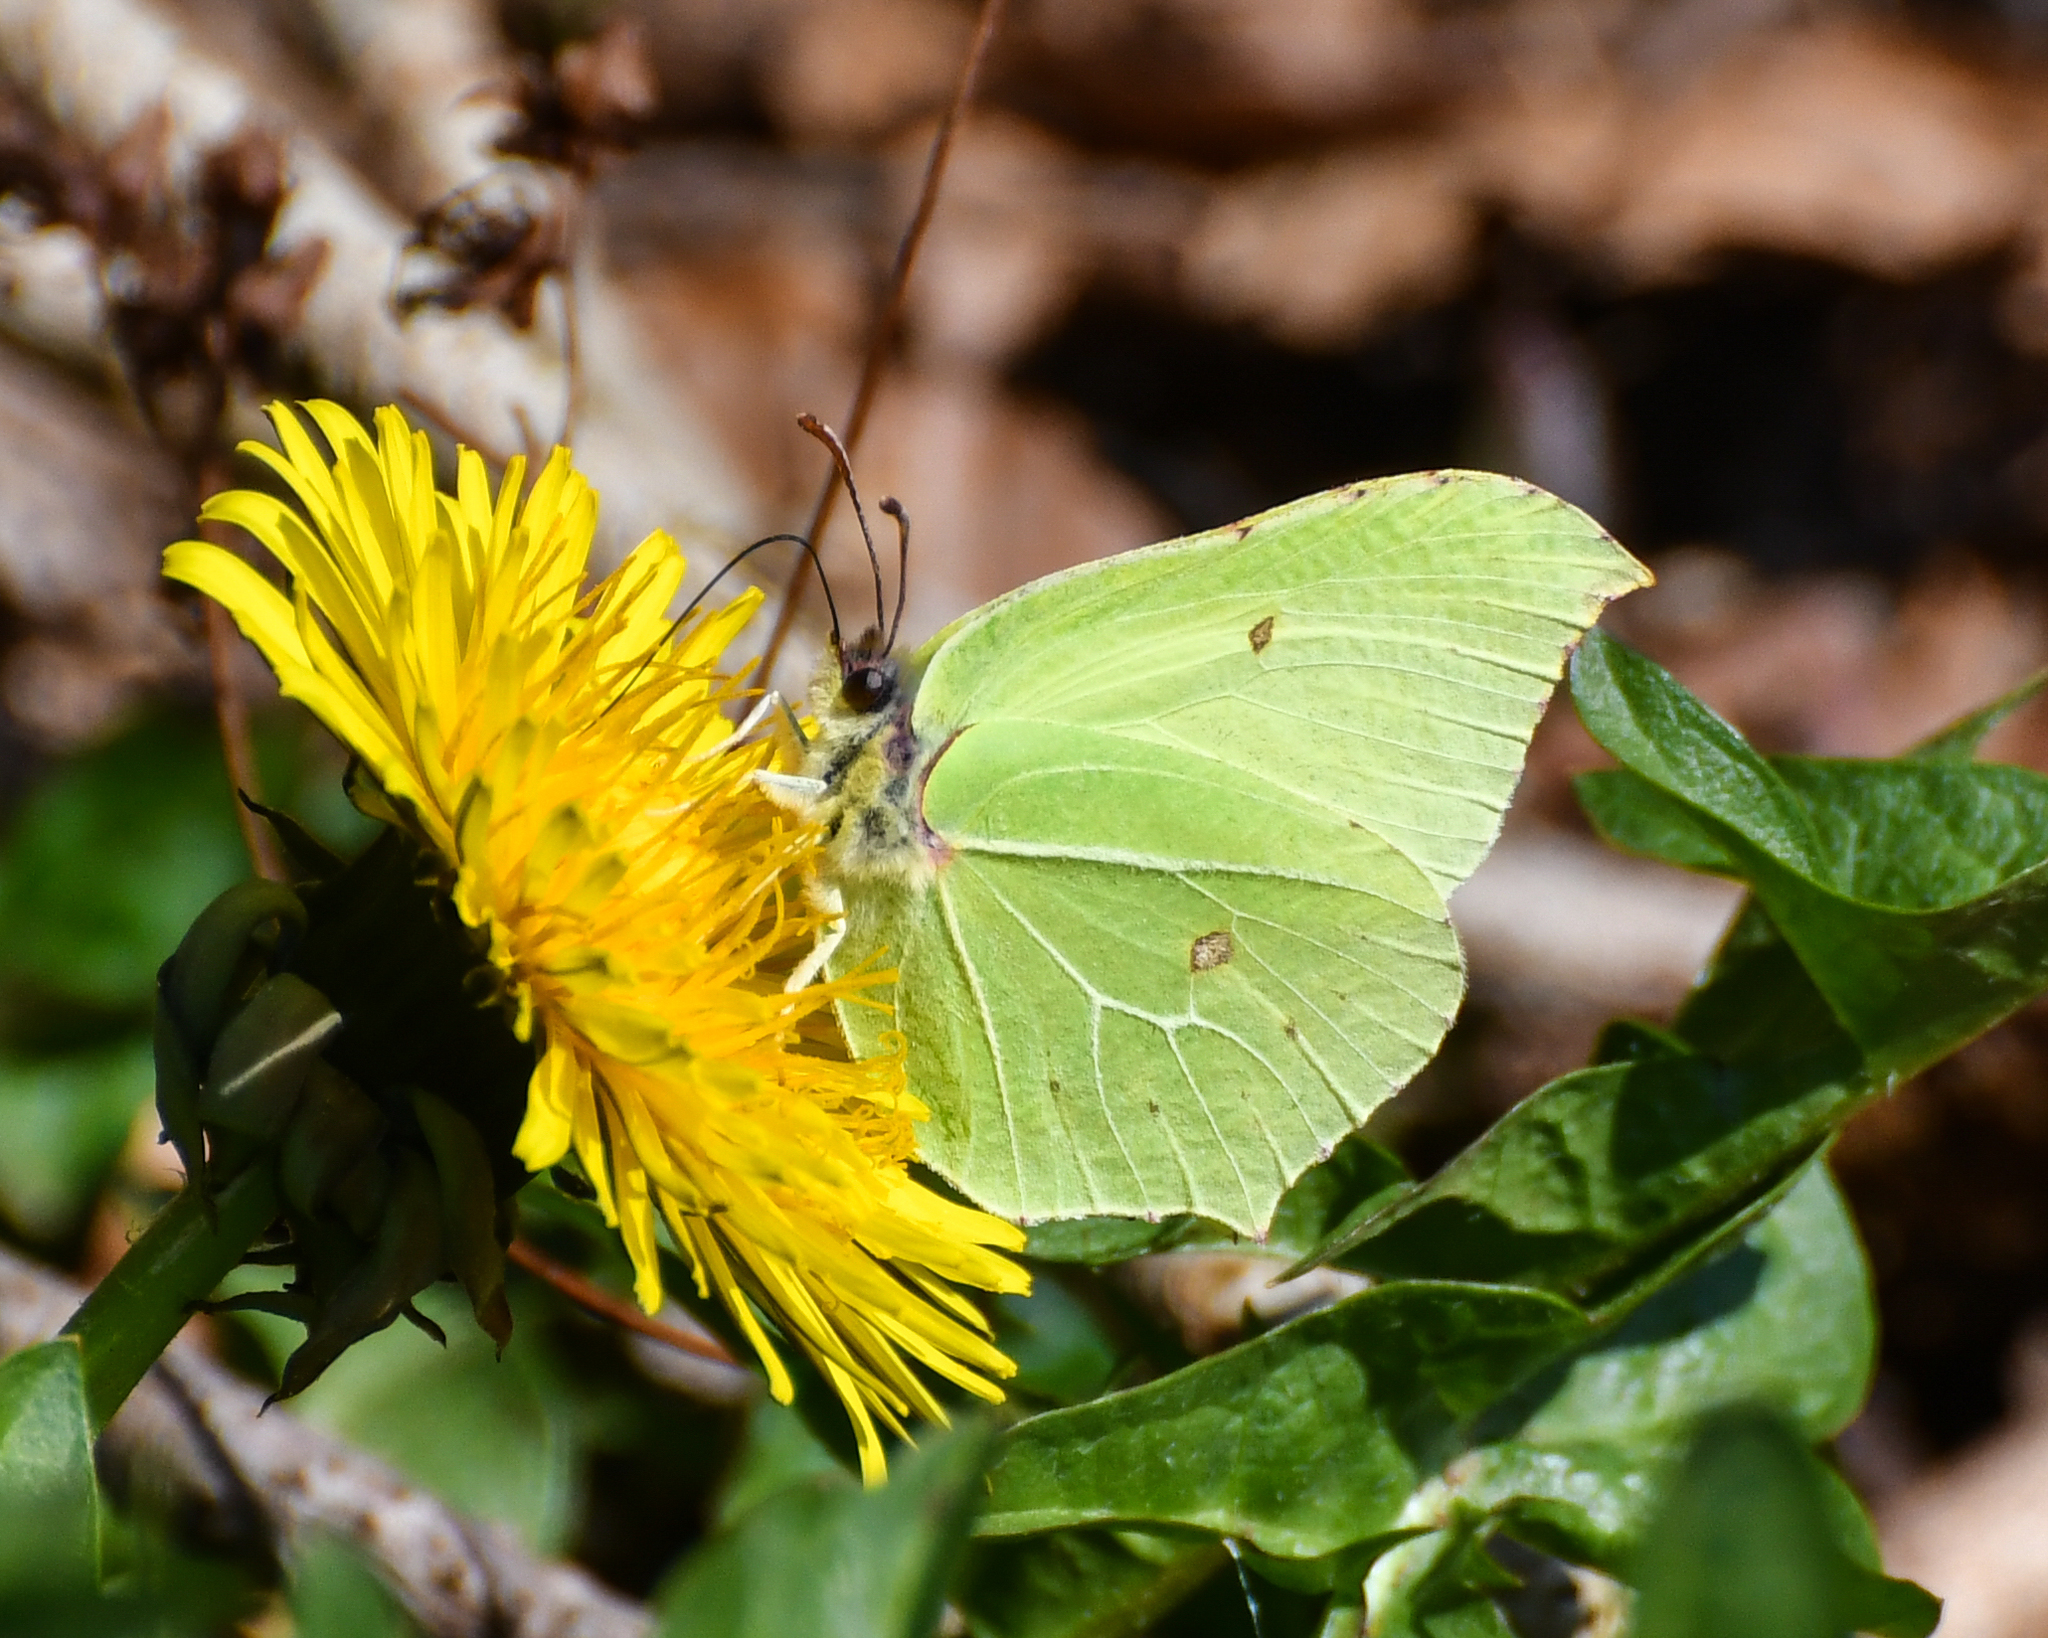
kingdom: Animalia
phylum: Arthropoda
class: Insecta
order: Lepidoptera
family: Pieridae
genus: Gonepteryx
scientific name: Gonepteryx rhamni
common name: Brimstone
